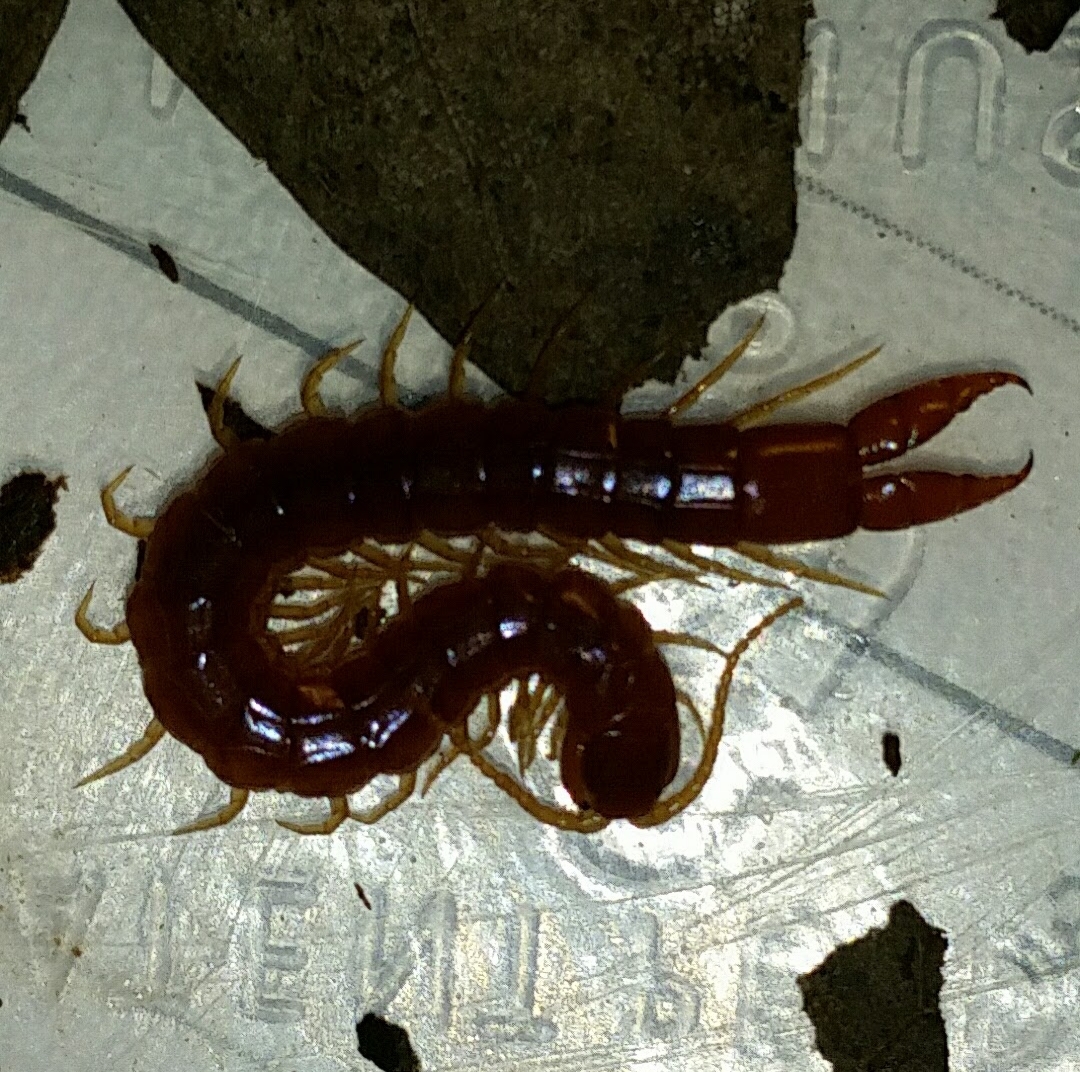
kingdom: Animalia
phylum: Arthropoda
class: Chilopoda
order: Scolopendromorpha
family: Cryptopidae
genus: Theatops
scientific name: Theatops posticus
